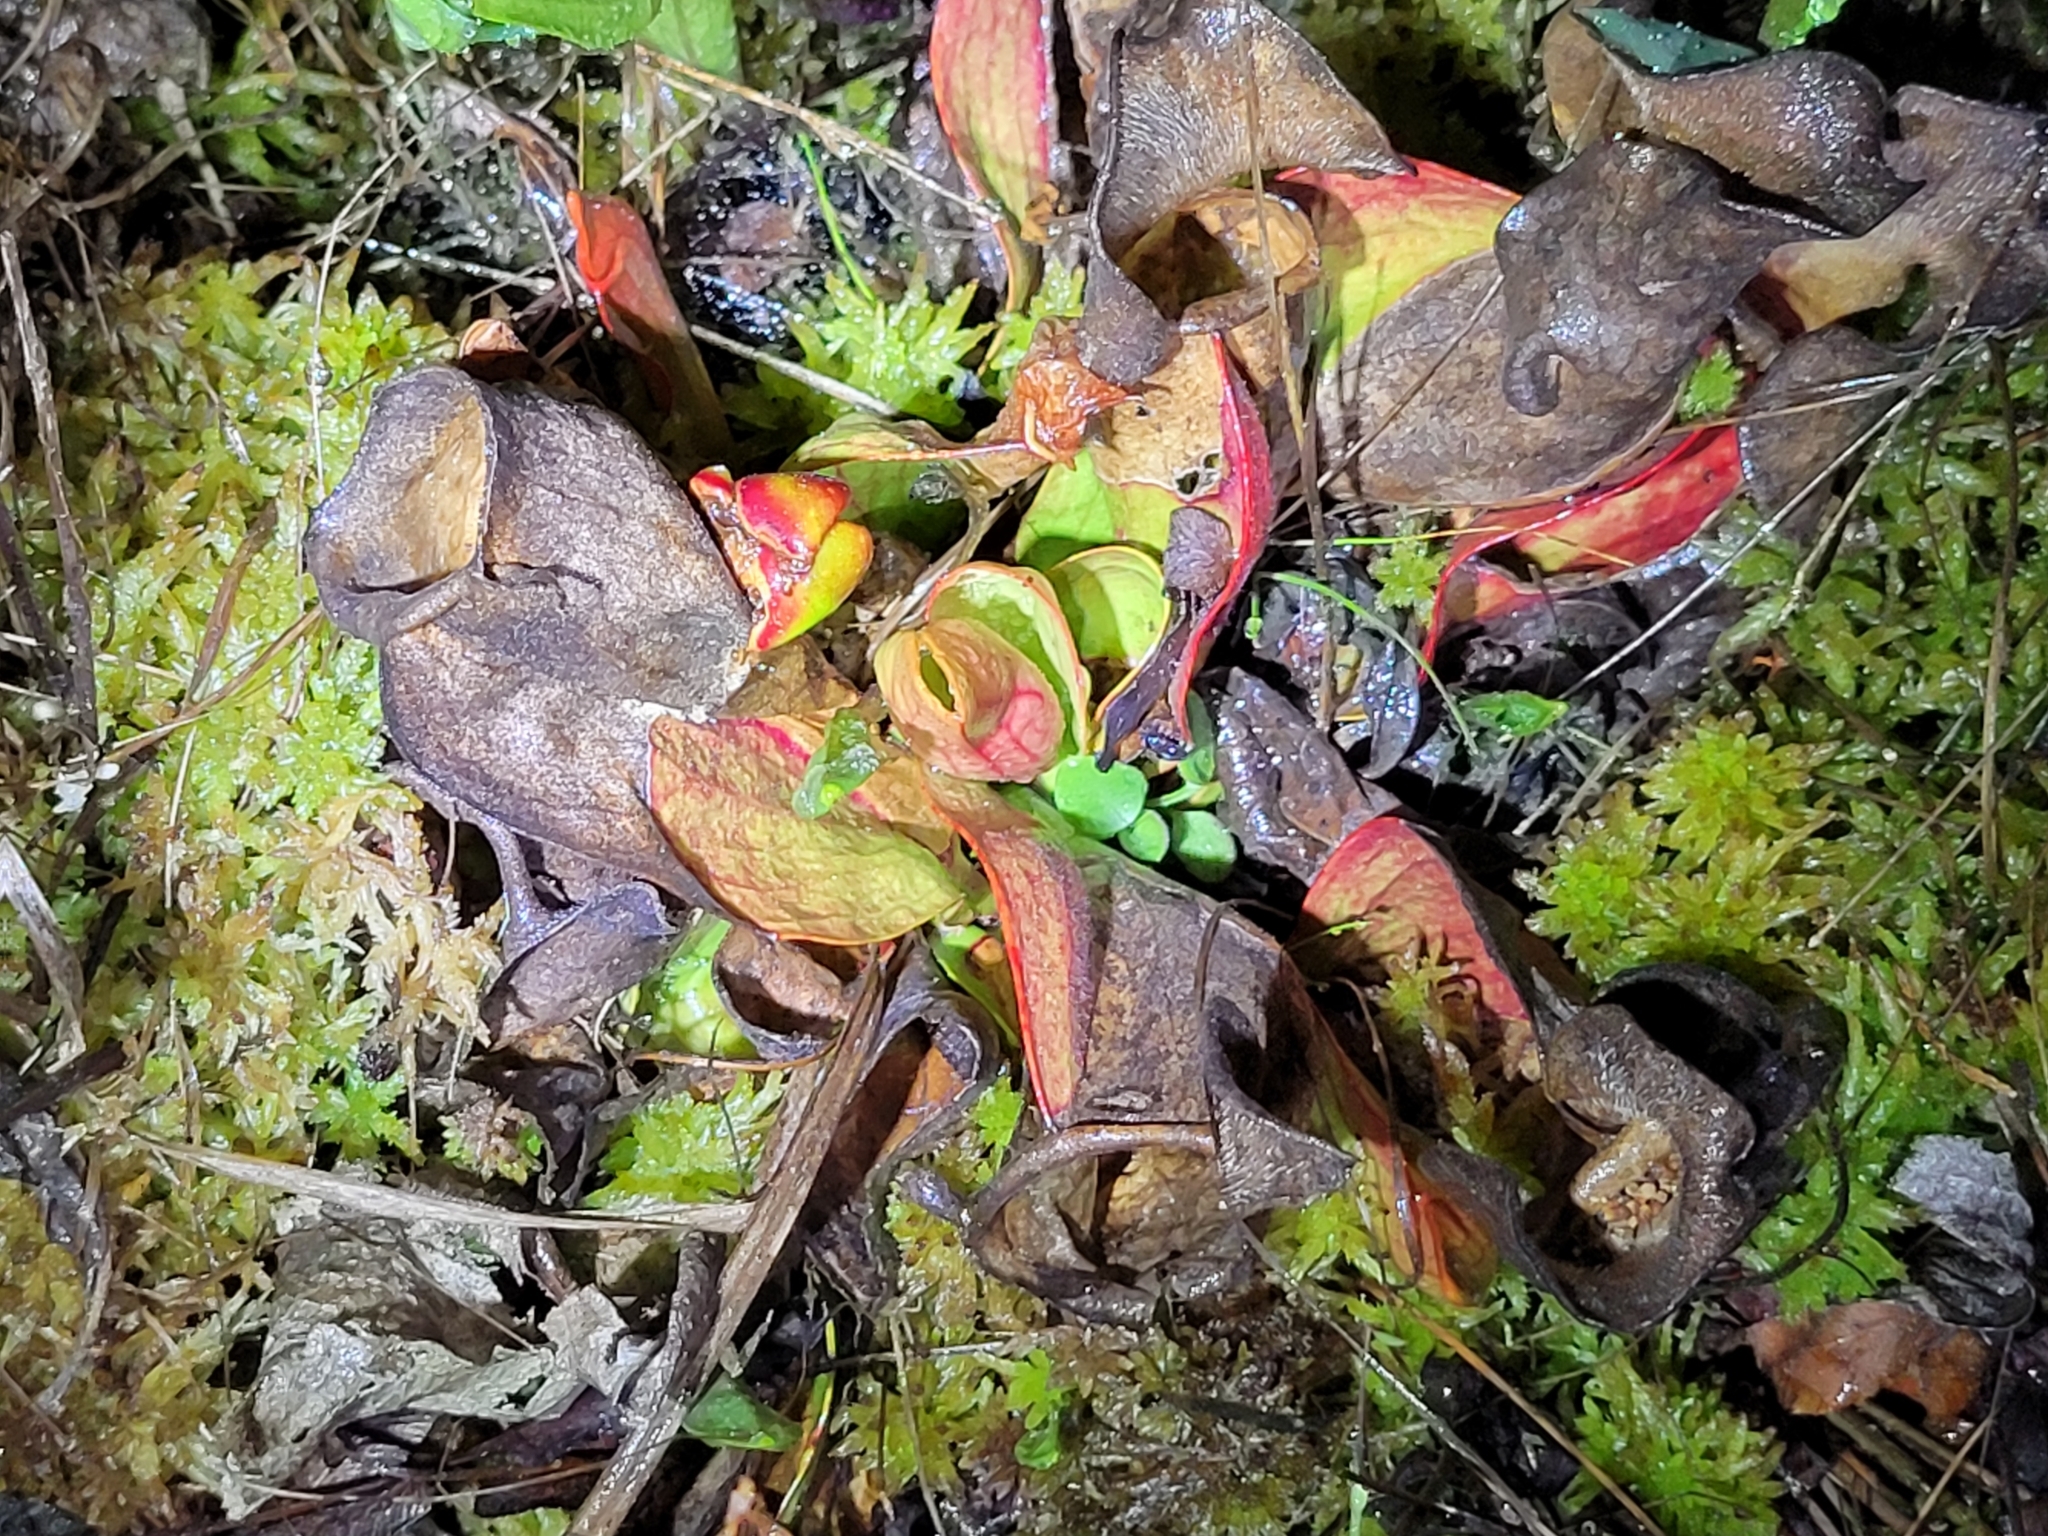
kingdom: Plantae
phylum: Tracheophyta
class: Magnoliopsida
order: Ericales
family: Sarraceniaceae
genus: Sarracenia
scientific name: Sarracenia purpurea
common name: Pitcherplant
